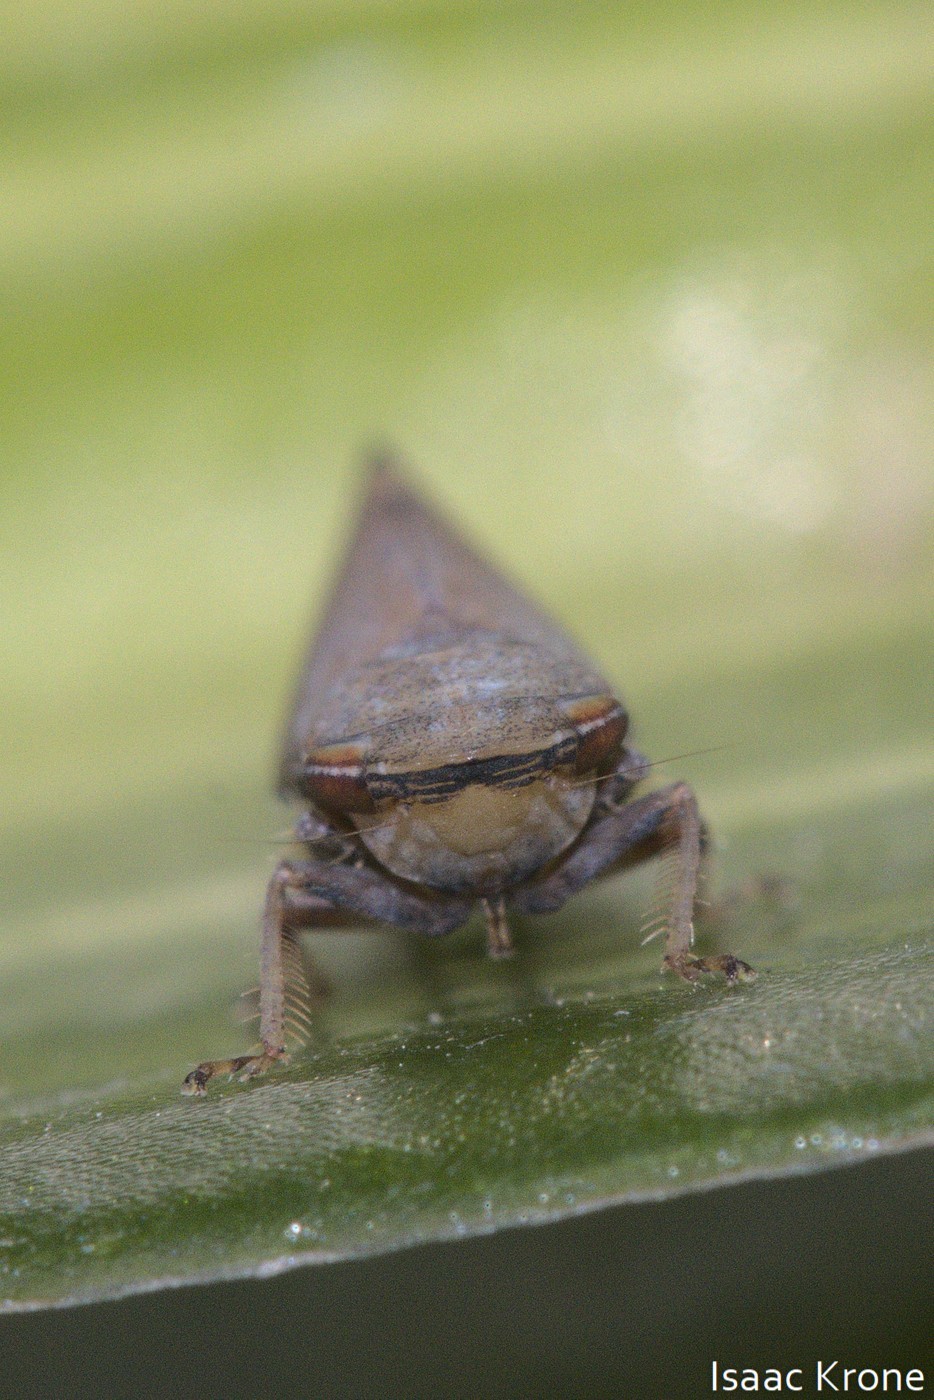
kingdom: Animalia
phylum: Arthropoda
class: Insecta
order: Hemiptera
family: Cicadellidae
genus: Fieberiella
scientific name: Fieberiella florii
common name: Flor’s leafhopper
